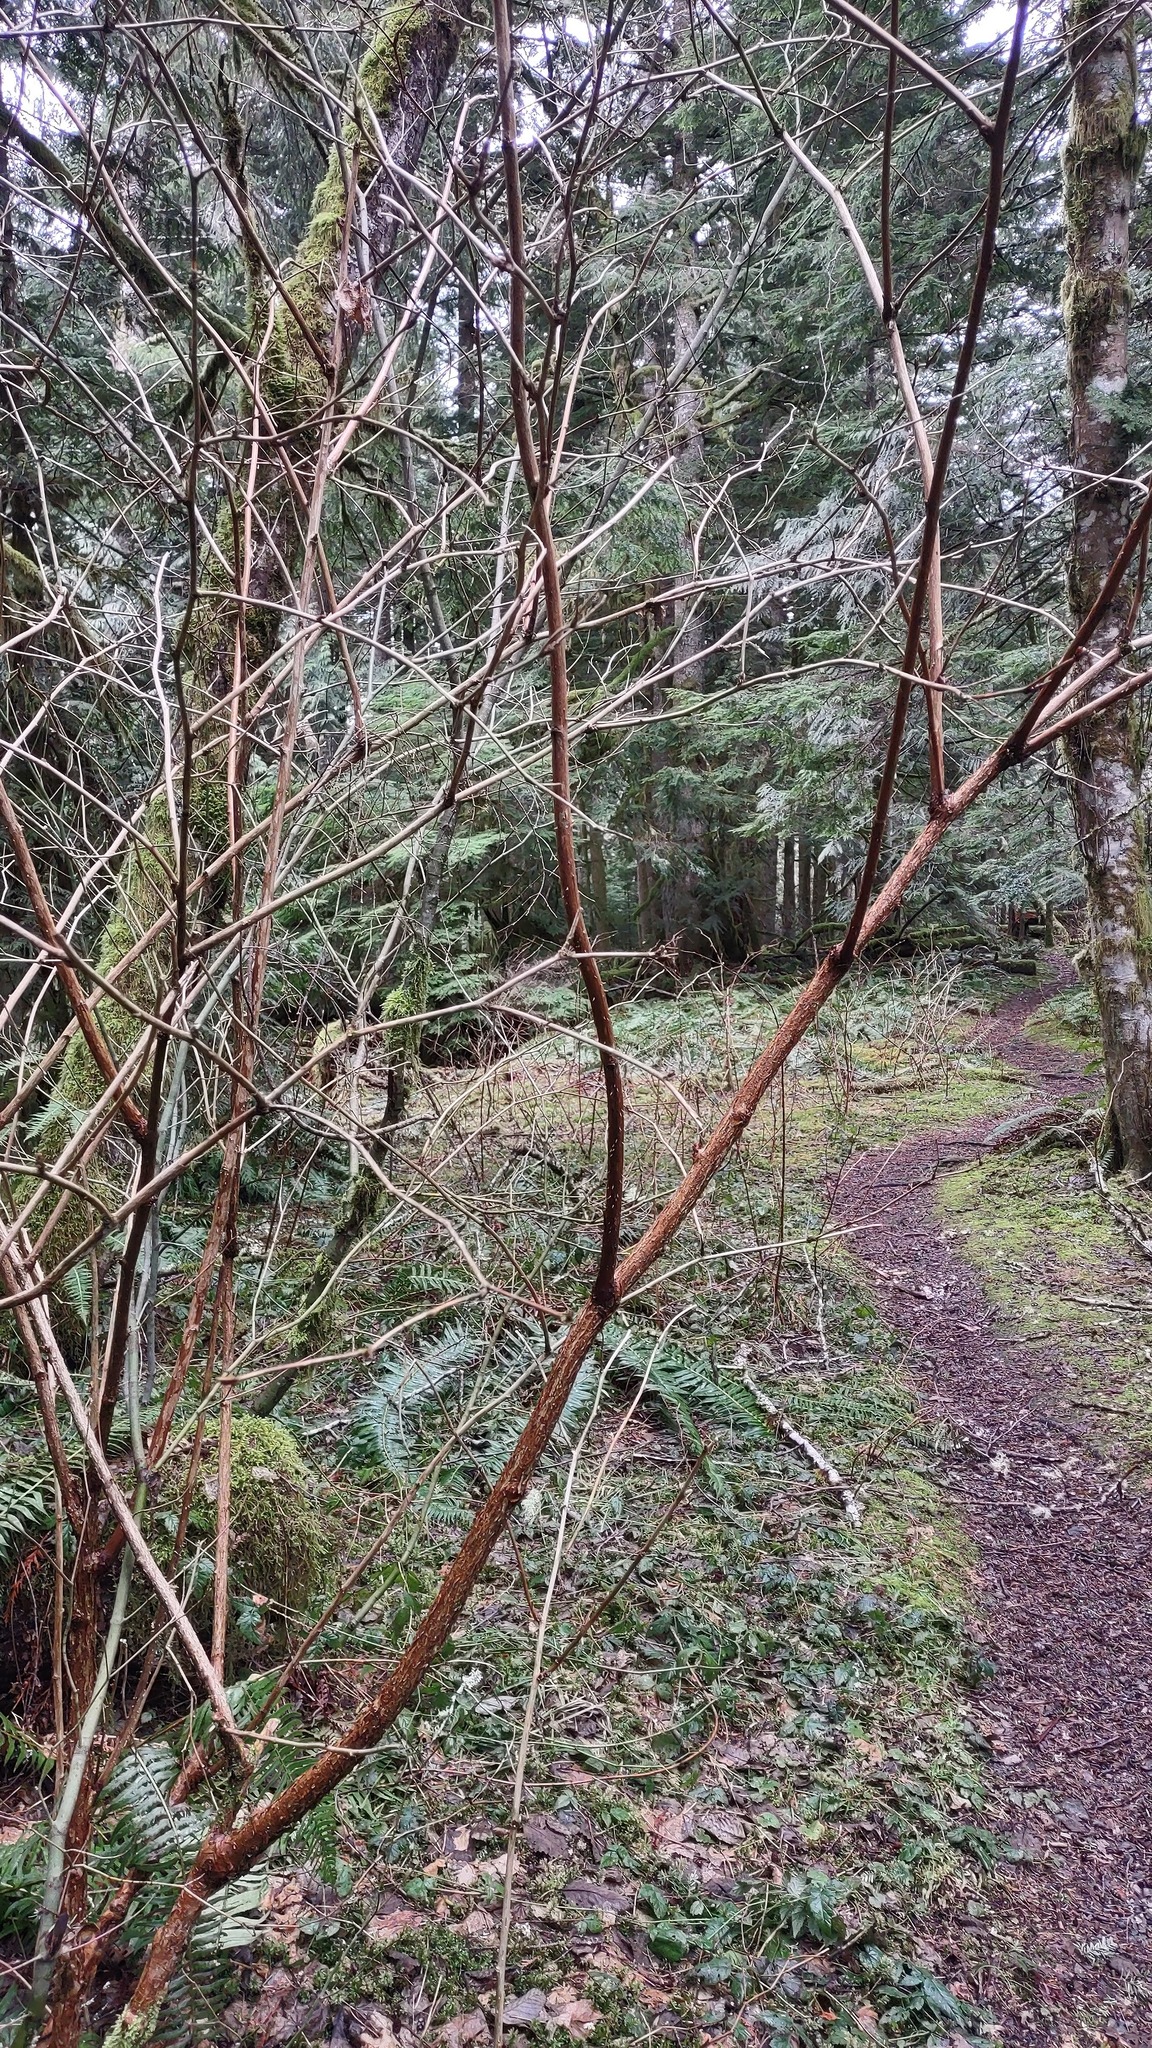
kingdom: Plantae
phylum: Tracheophyta
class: Magnoliopsida
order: Rosales
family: Rosaceae
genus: Rubus
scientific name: Rubus spectabilis
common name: Salmonberry
